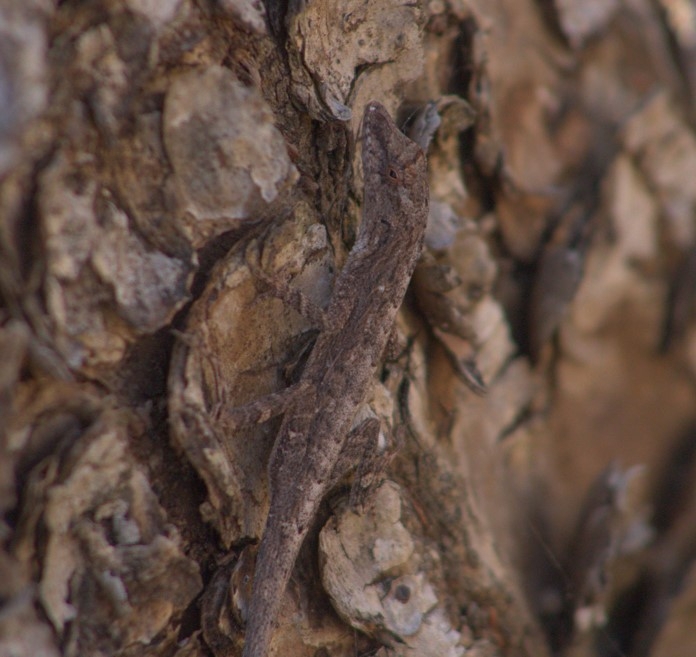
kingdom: Animalia
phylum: Chordata
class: Squamata
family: Dactyloidae
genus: Anolis
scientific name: Anolis unilobatus
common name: Blue-spotted fan anole
